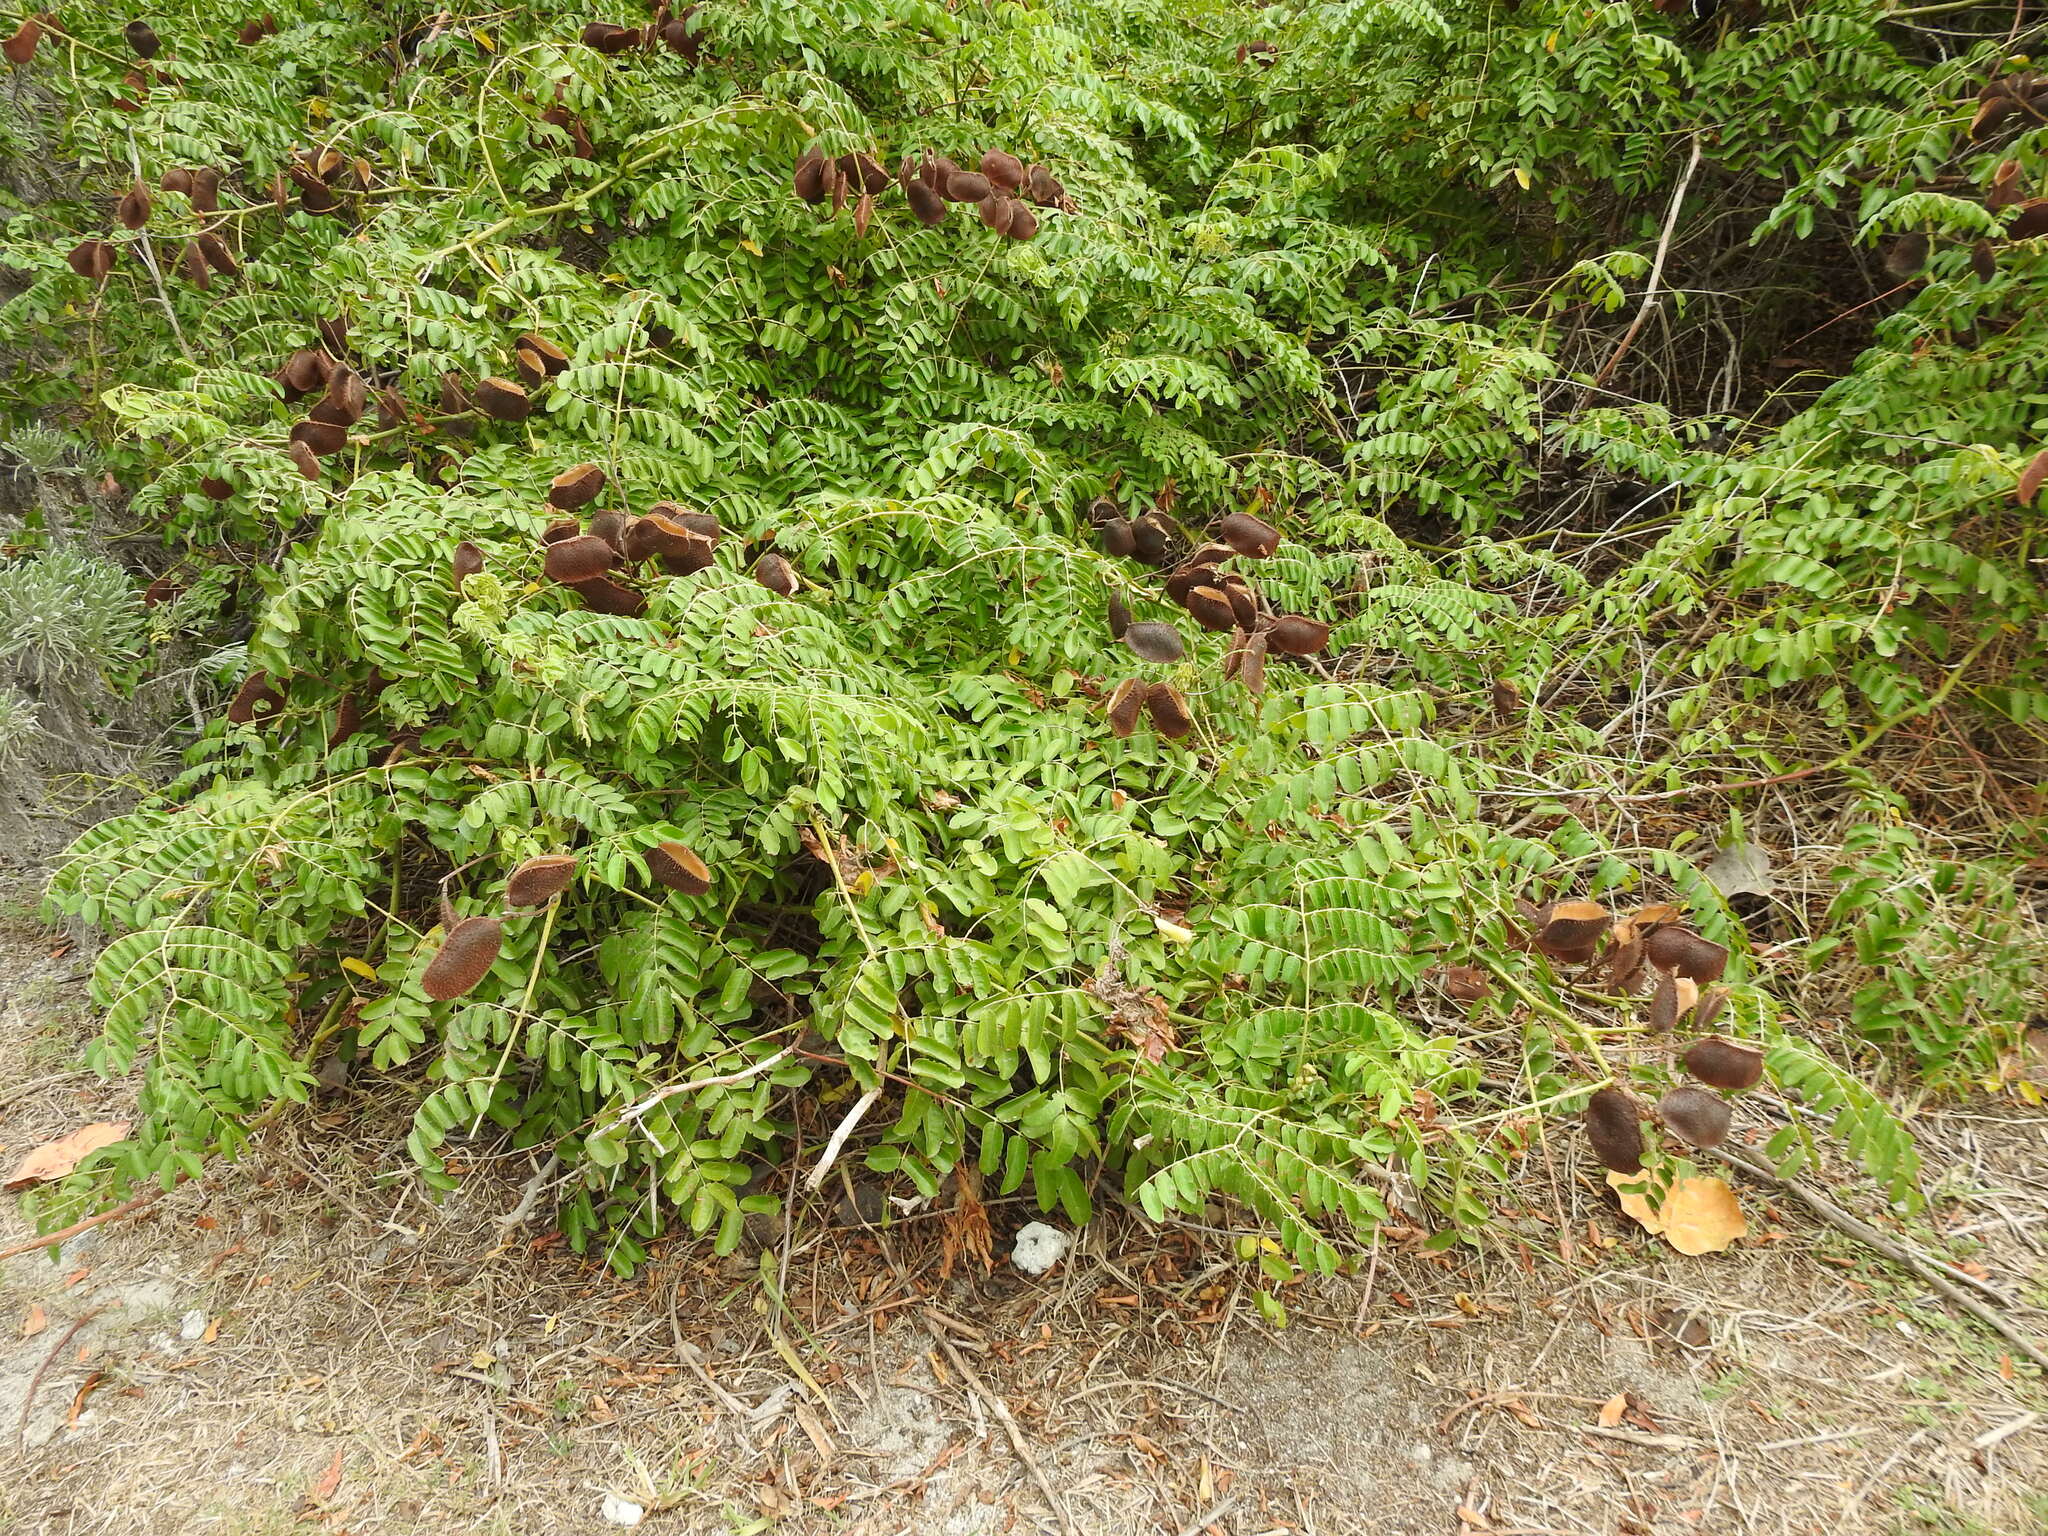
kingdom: Plantae
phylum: Tracheophyta
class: Magnoliopsida
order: Fabales
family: Fabaceae
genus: Guilandina
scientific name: Guilandina bonduc
